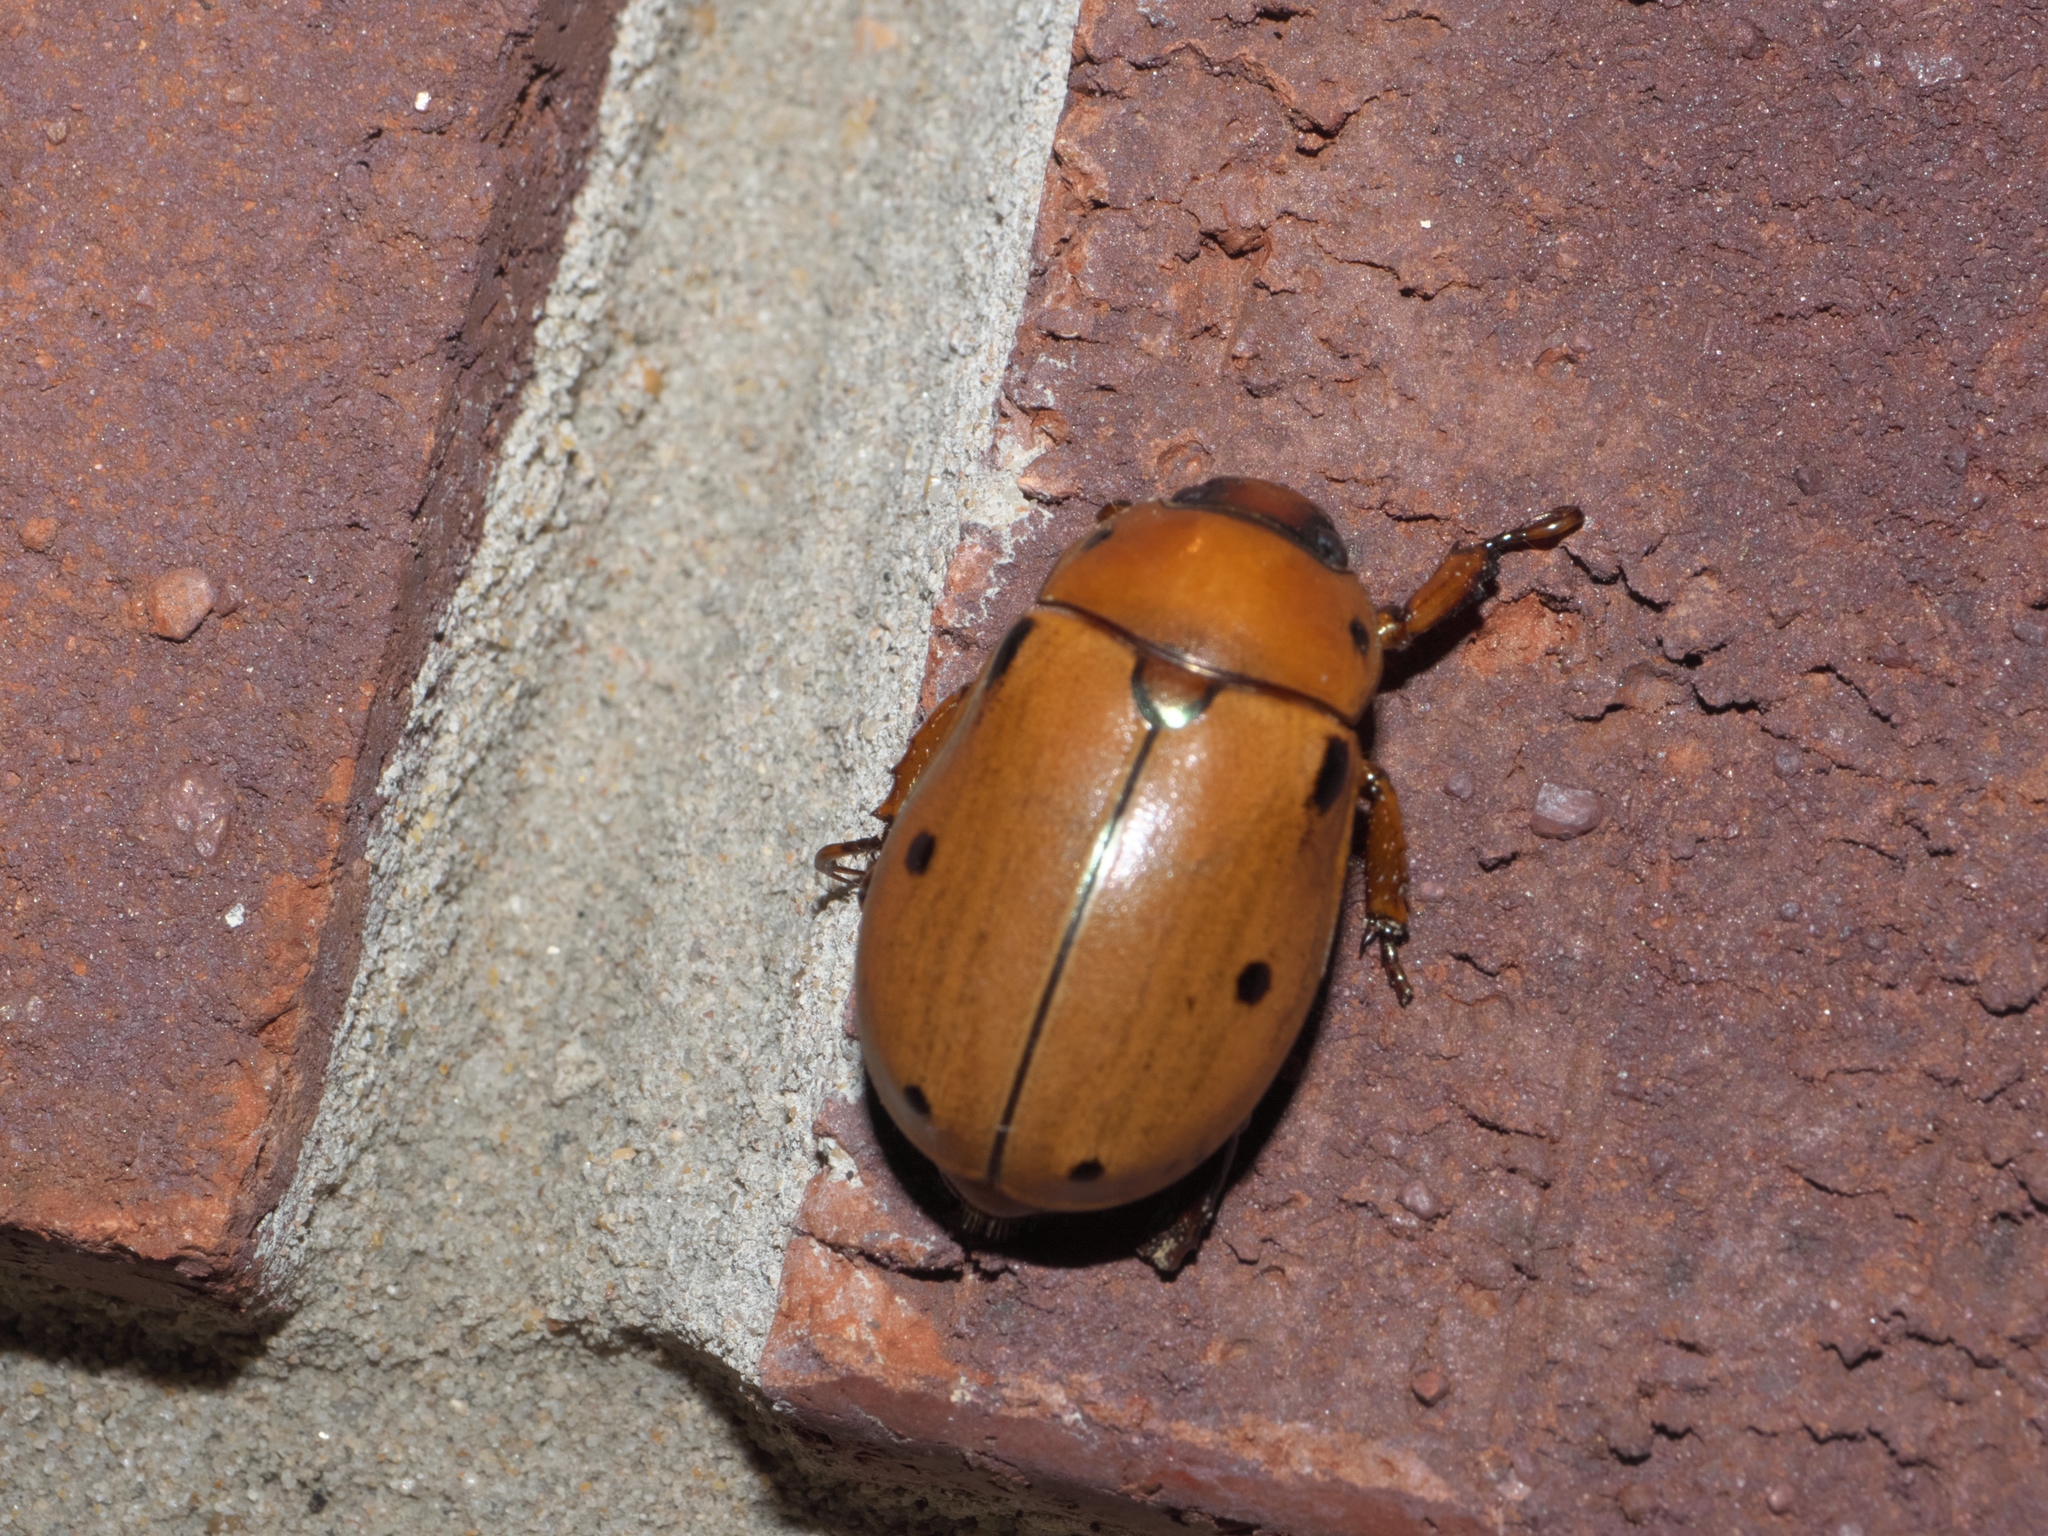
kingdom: Animalia
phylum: Arthropoda
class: Insecta
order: Coleoptera
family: Scarabaeidae
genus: Pelidnota
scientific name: Pelidnota punctata
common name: Grapevine beetle
